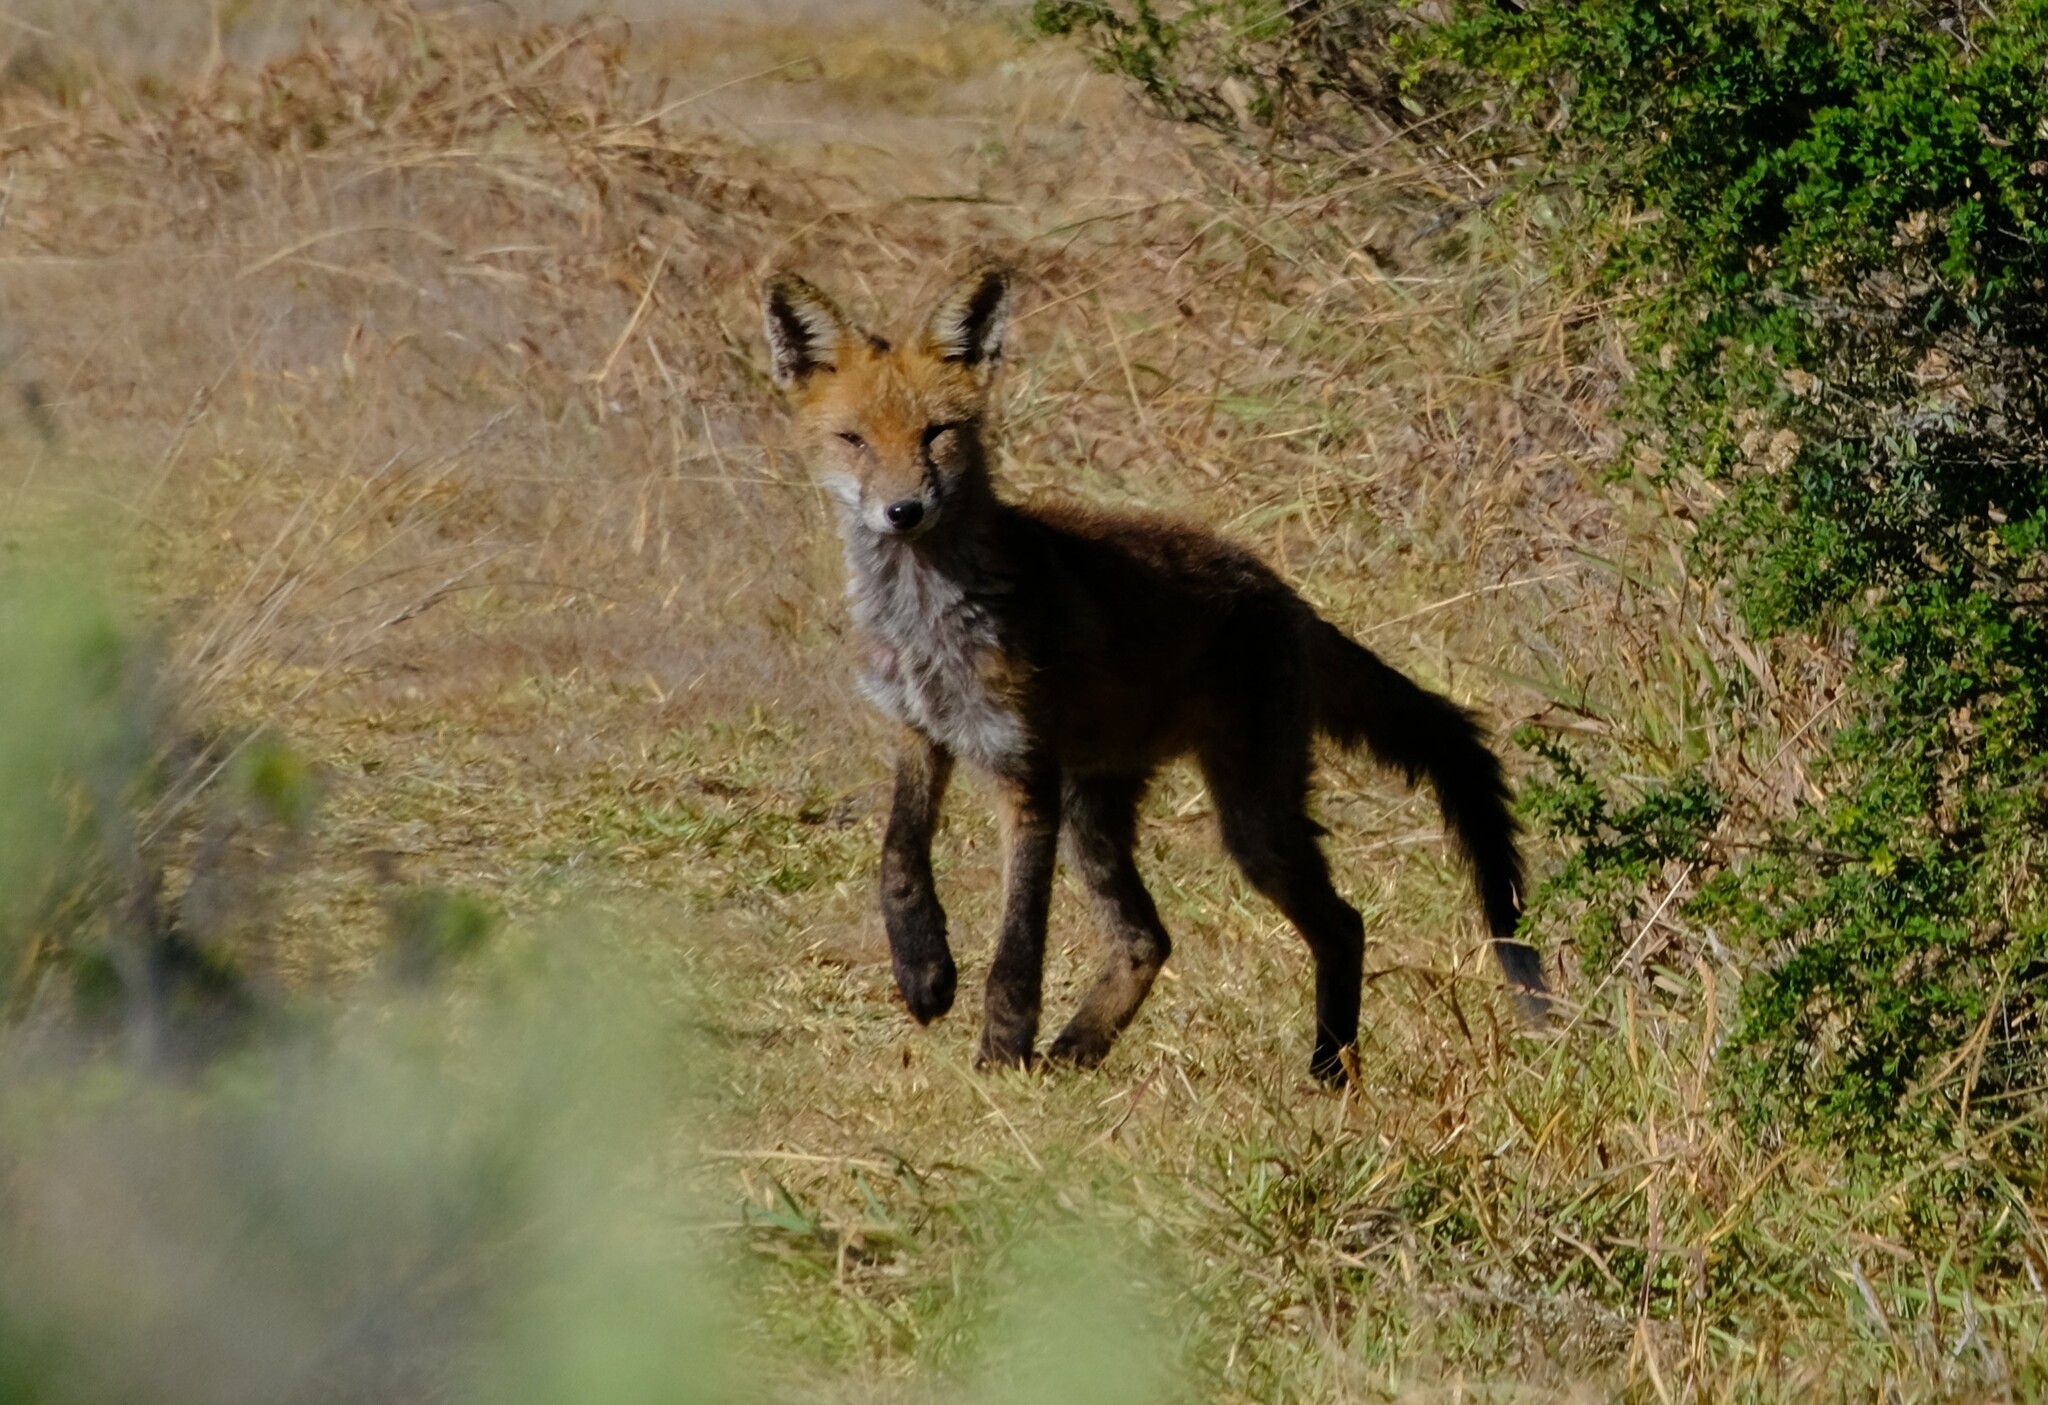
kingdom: Animalia
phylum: Chordata
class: Mammalia
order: Carnivora
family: Canidae
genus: Vulpes
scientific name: Vulpes vulpes
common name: Red fox
